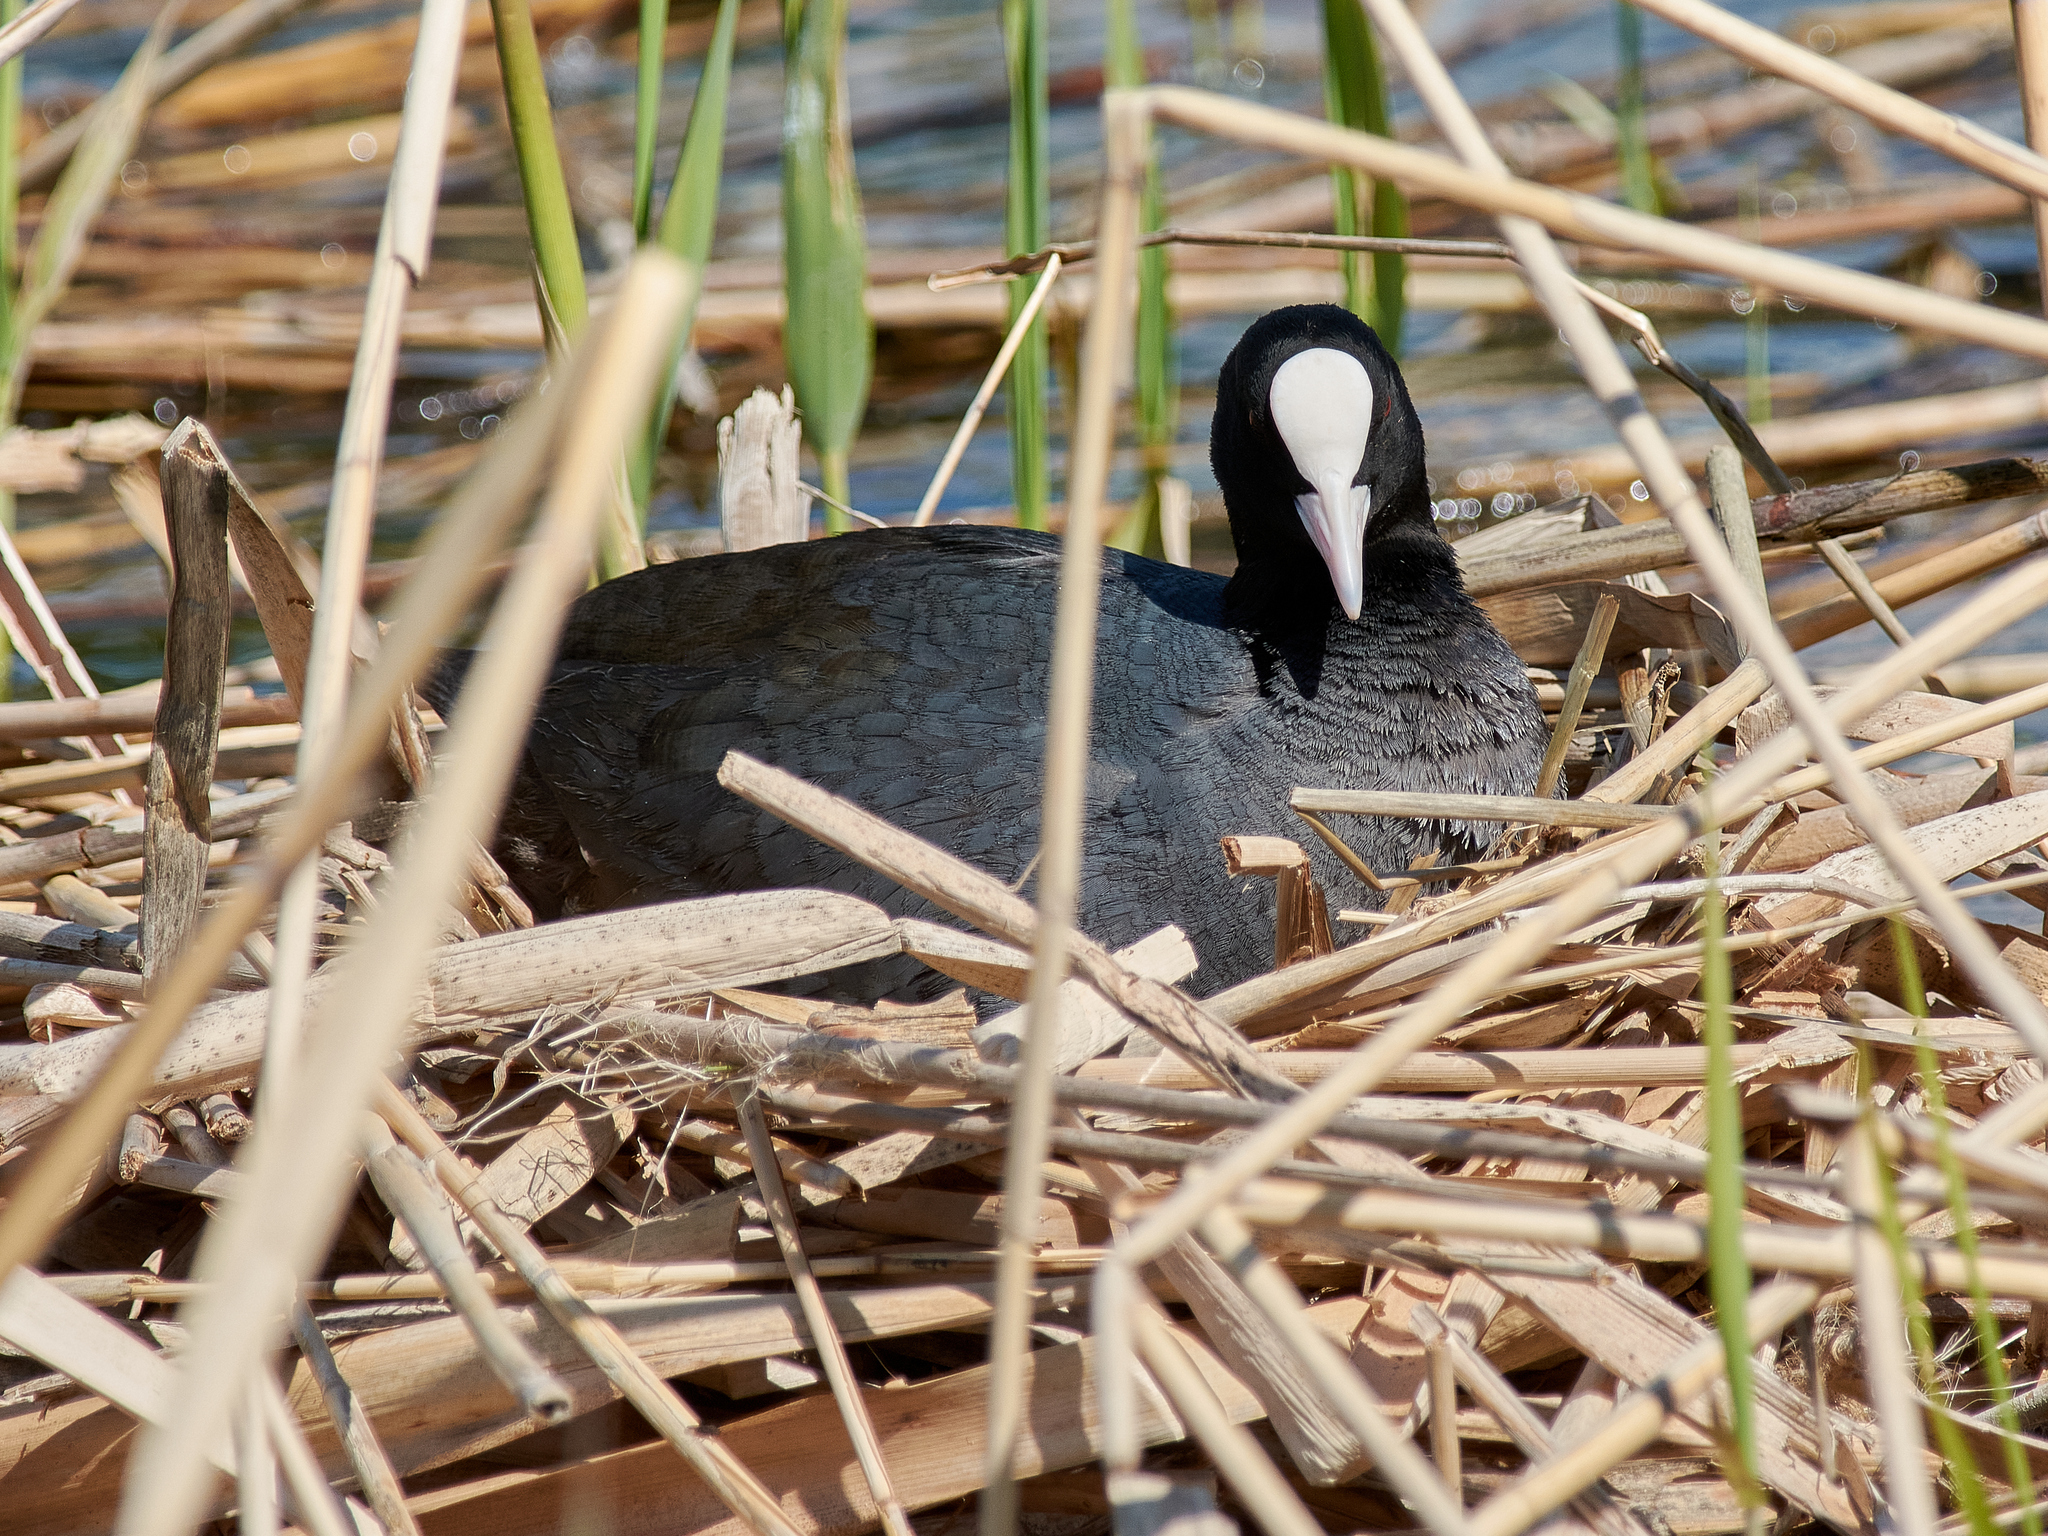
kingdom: Animalia
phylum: Chordata
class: Aves
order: Gruiformes
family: Rallidae
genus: Fulica
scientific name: Fulica atra
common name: Eurasian coot
